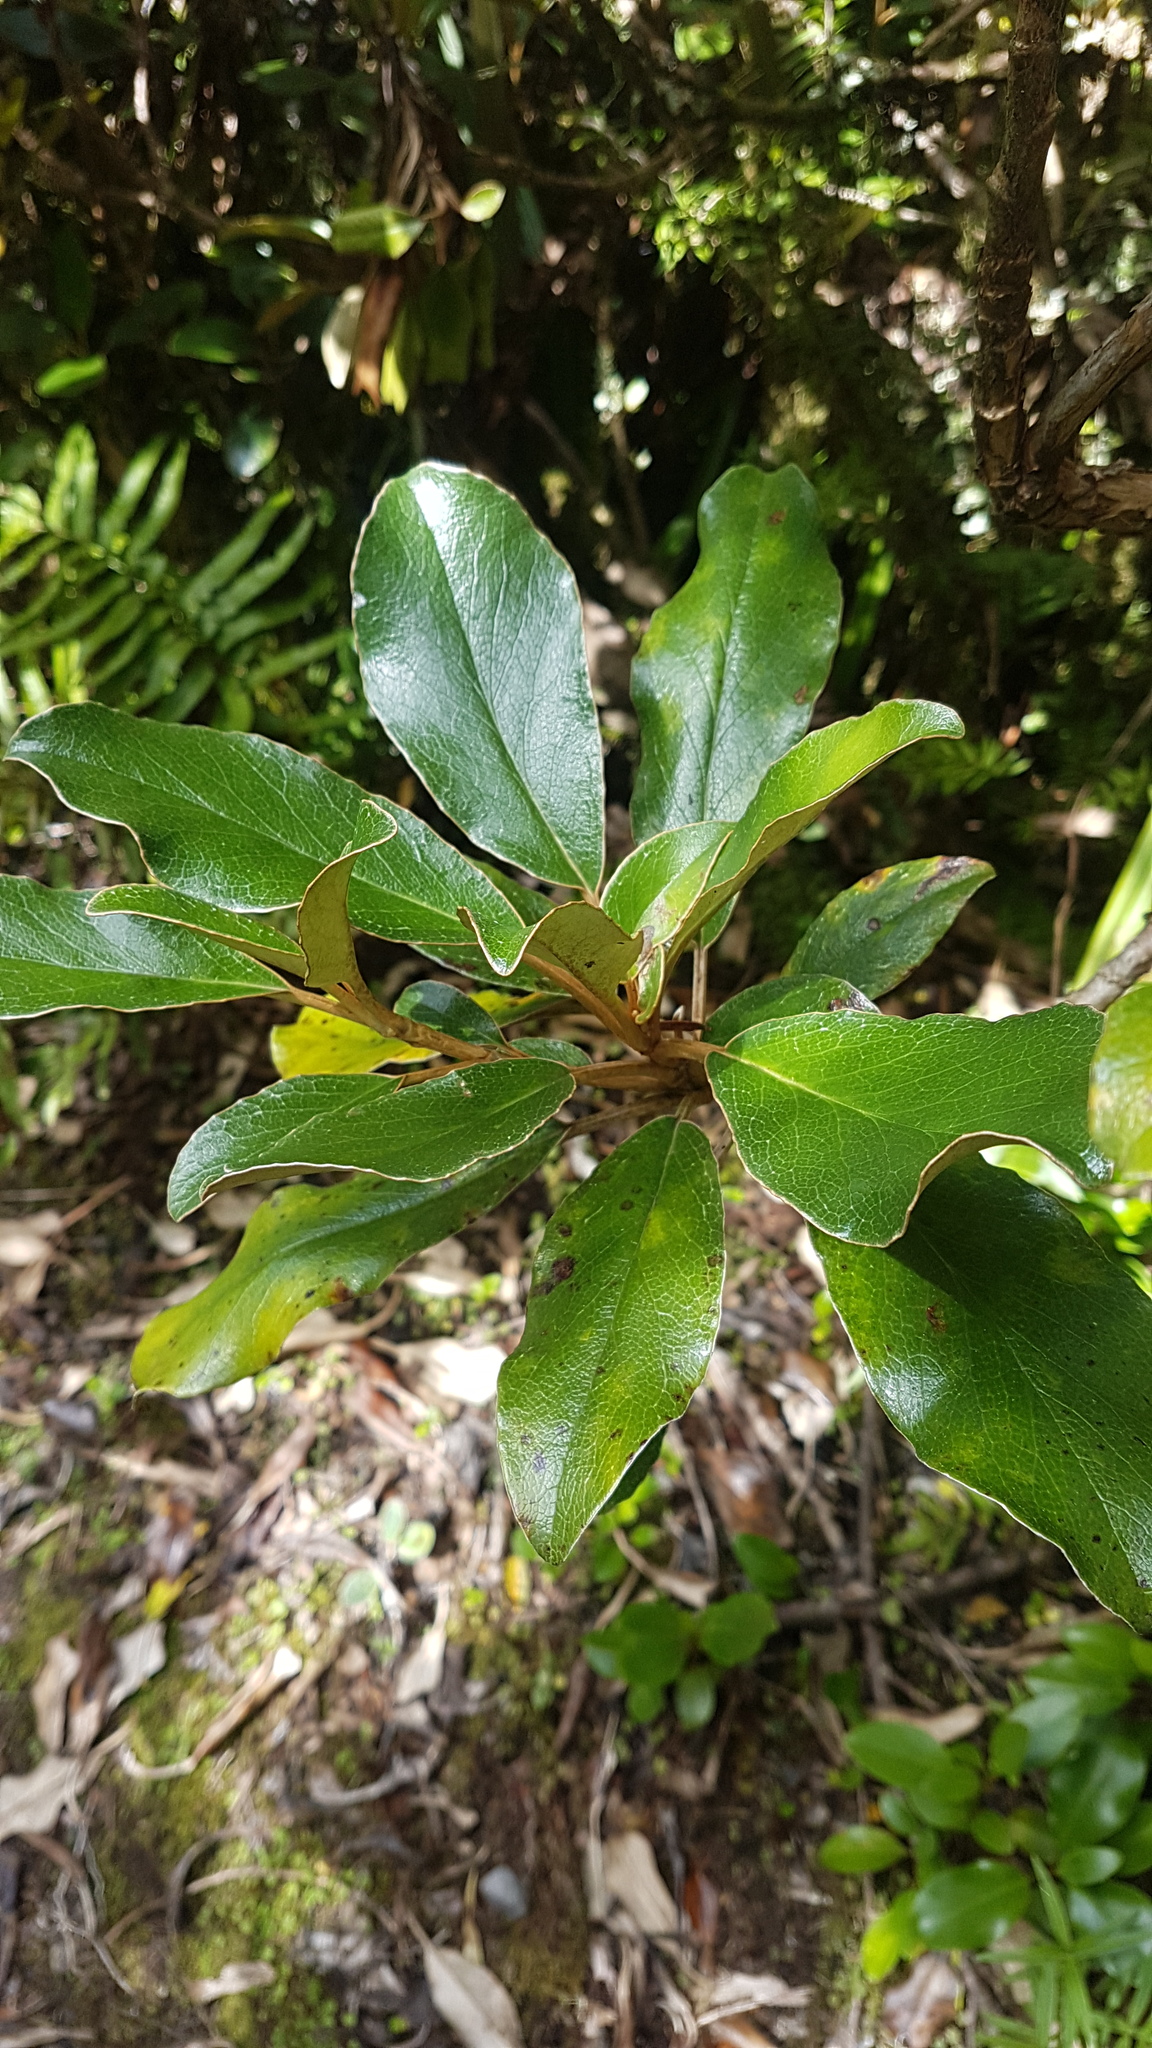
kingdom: Plantae
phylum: Tracheophyta
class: Magnoliopsida
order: Asterales
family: Asteraceae
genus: Brachyglottis
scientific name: Brachyglottis elaeagnifolia
